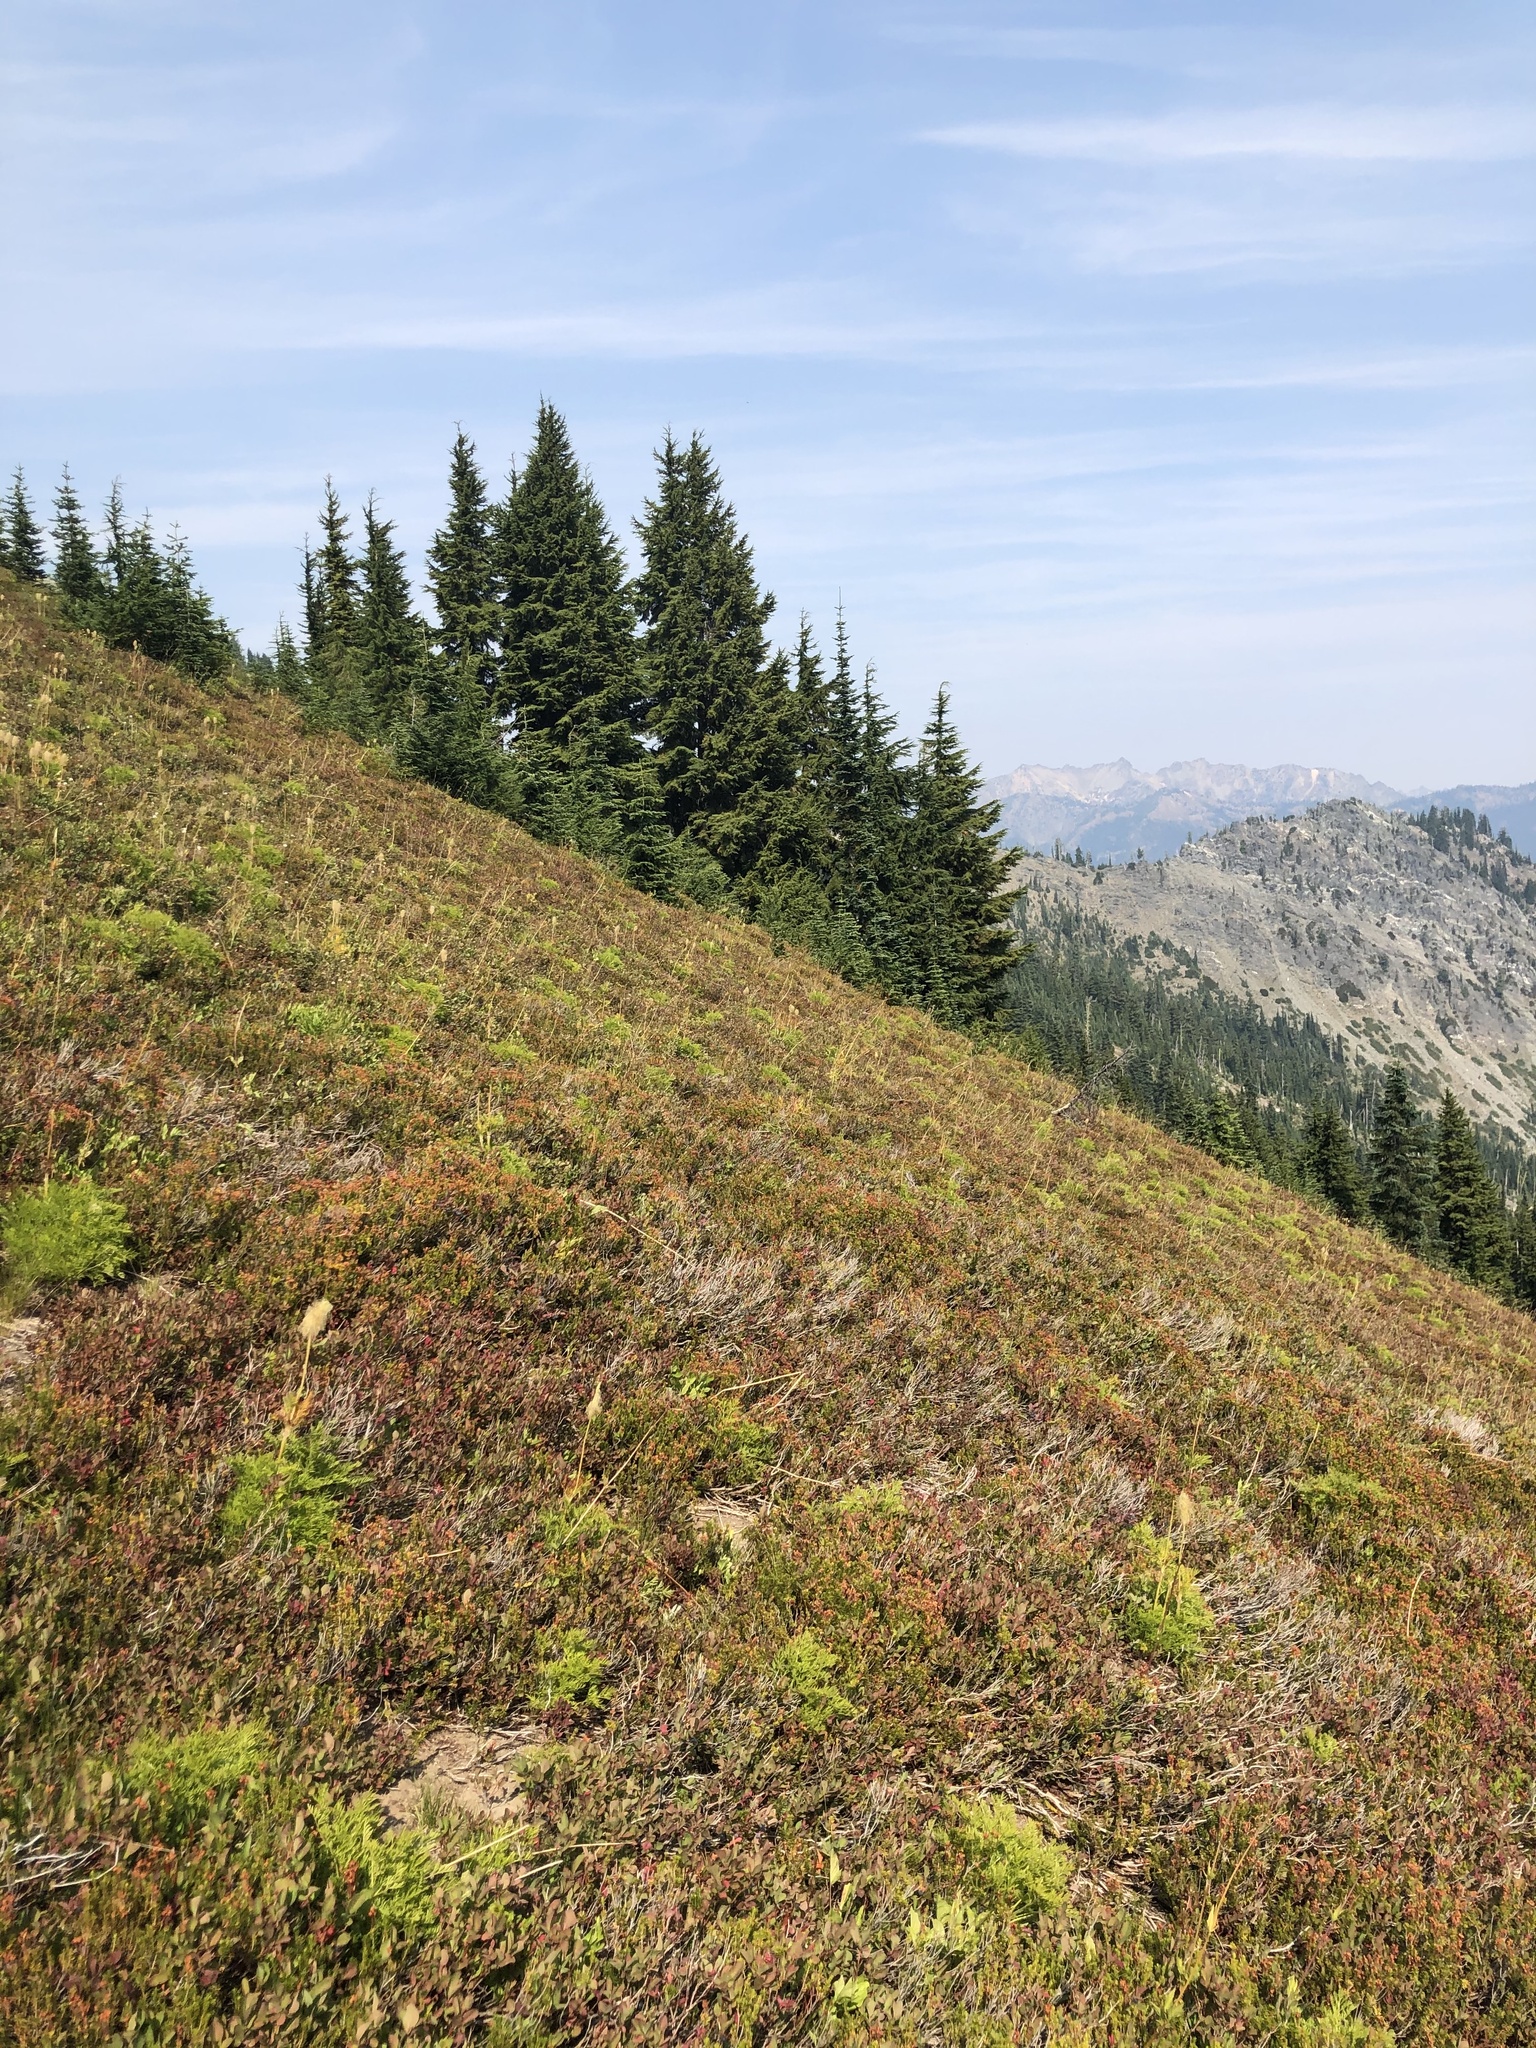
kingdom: Plantae
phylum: Tracheophyta
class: Pinopsida
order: Pinales
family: Pinaceae
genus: Tsuga
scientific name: Tsuga mertensiana
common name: Mountain hemlock
